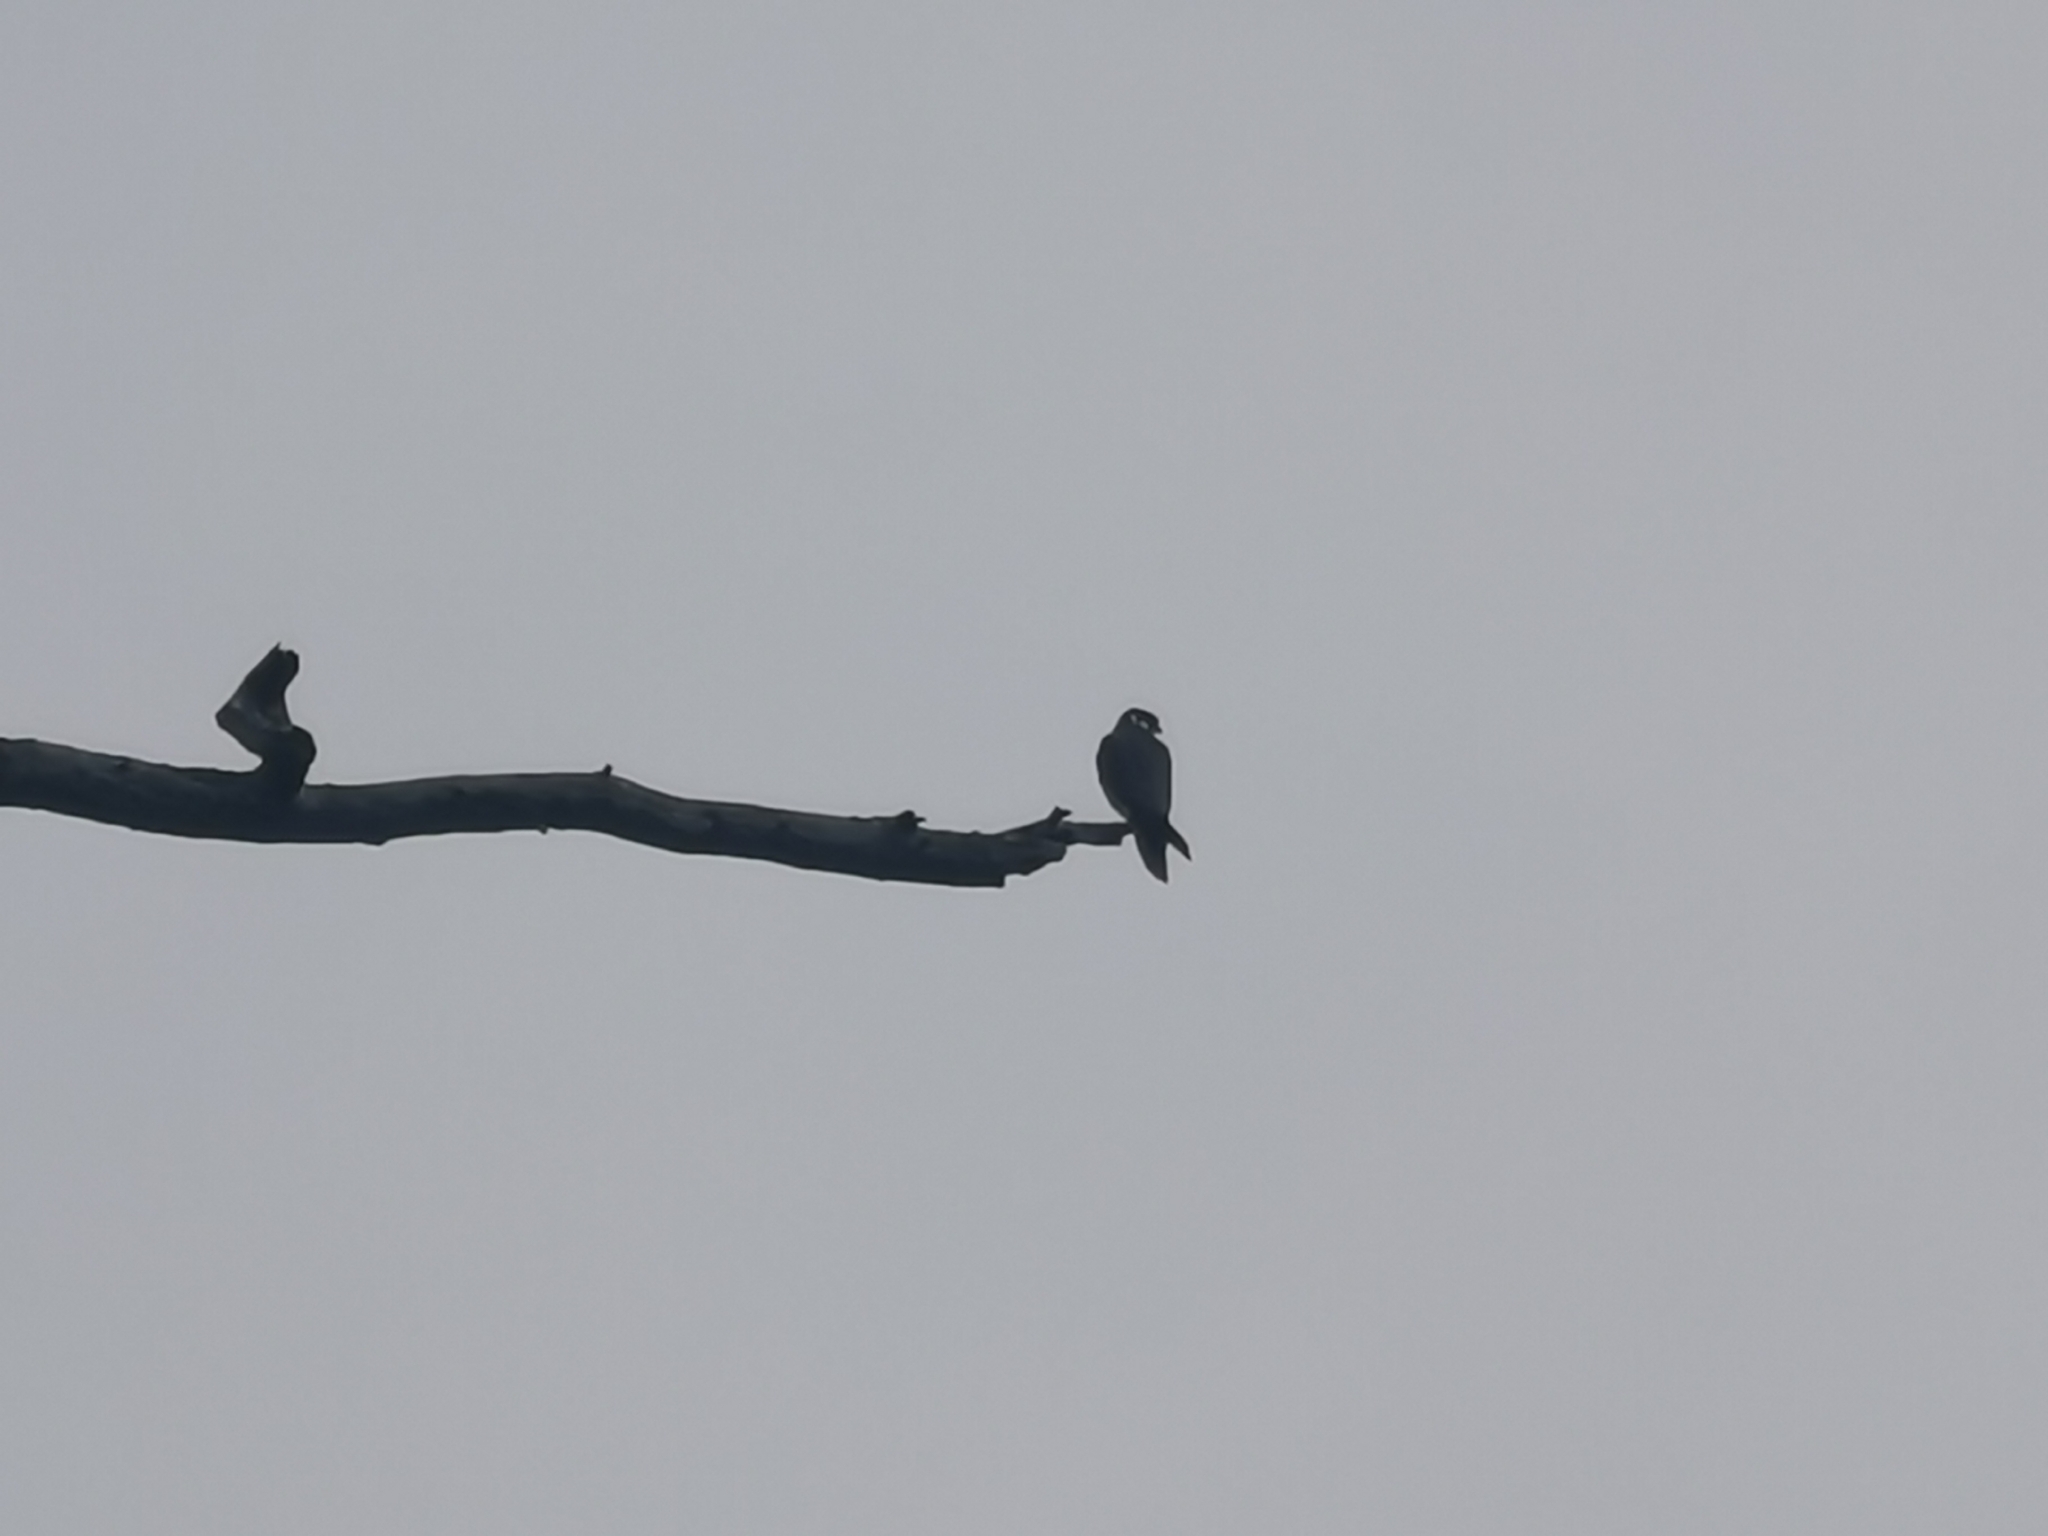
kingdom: Animalia
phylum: Chordata
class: Aves
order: Falconiformes
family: Falconidae
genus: Falco
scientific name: Falco subbuteo
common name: Eurasian hobby
